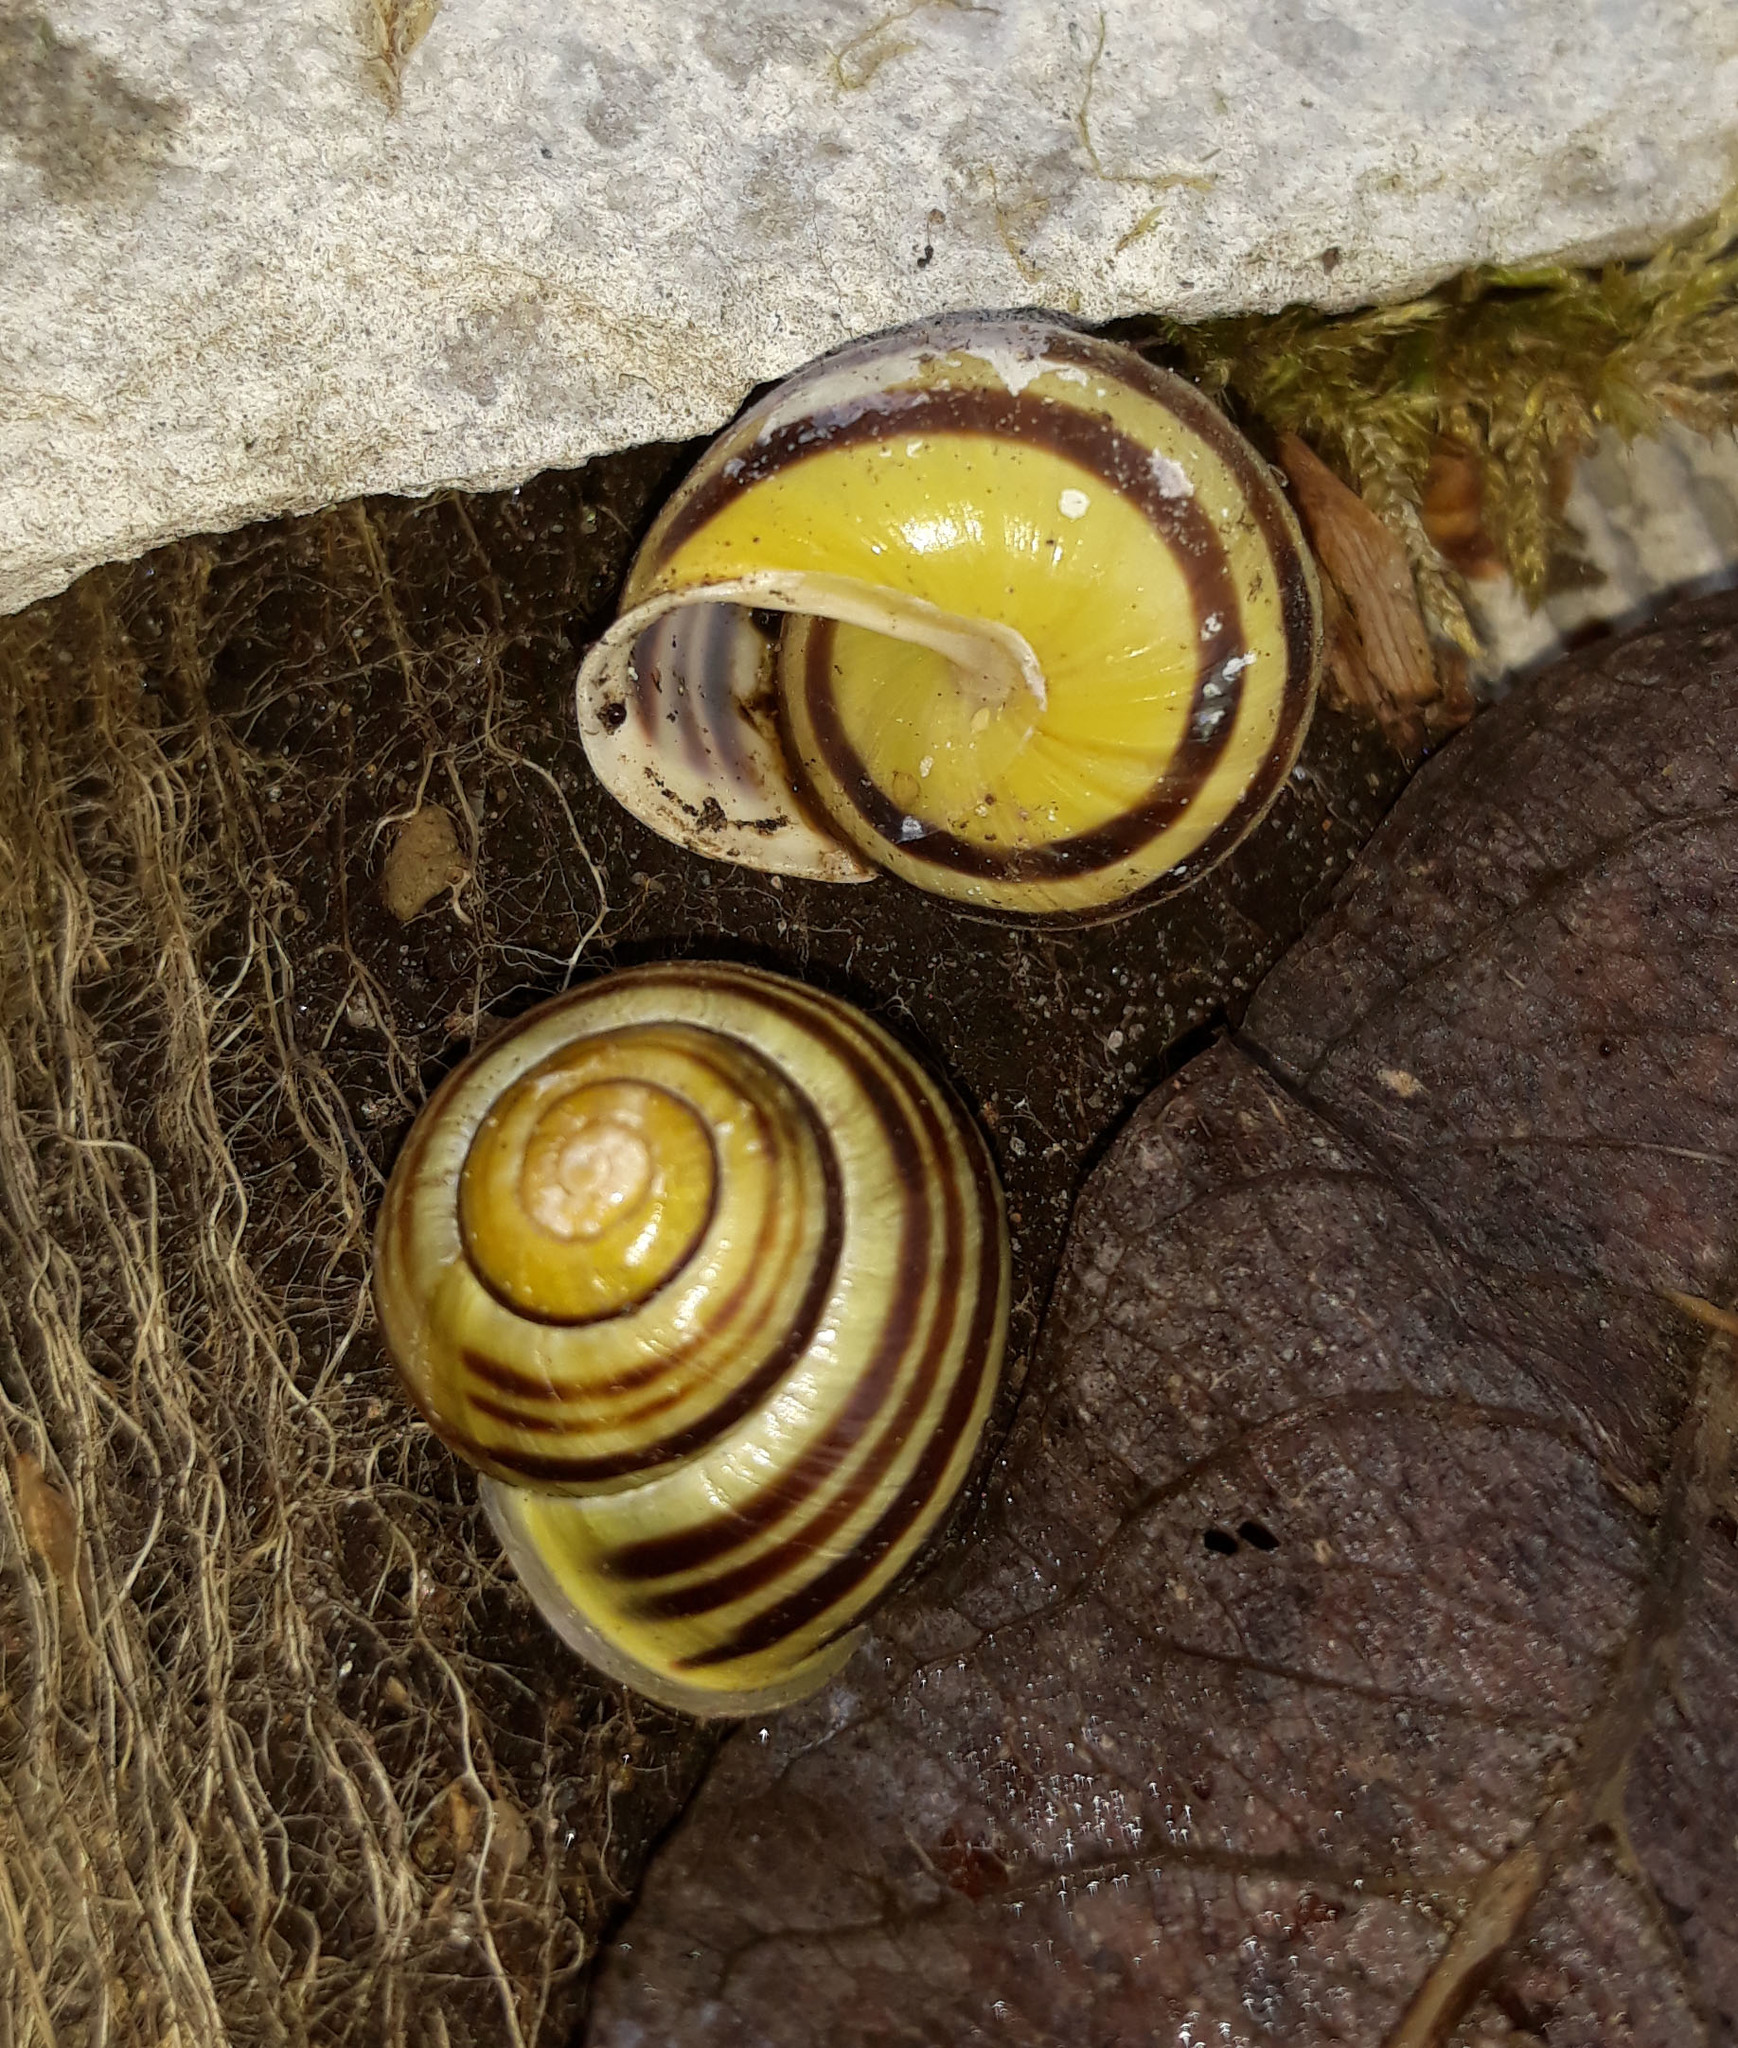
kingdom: Animalia
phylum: Mollusca
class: Gastropoda
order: Stylommatophora
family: Helicidae
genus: Cepaea
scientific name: Cepaea hortensis
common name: White-lip gardensnail
